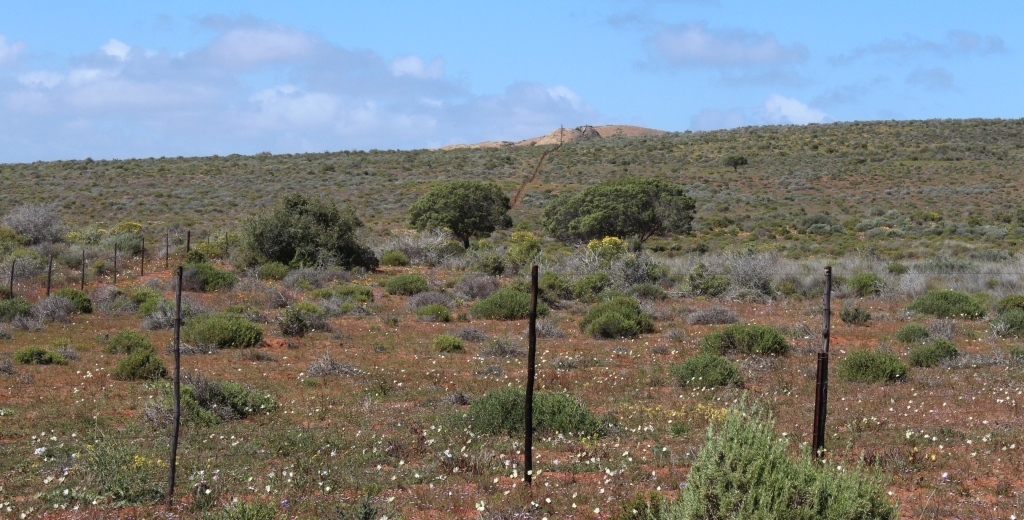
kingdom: Plantae
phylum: Tracheophyta
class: Magnoliopsida
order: Fabales
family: Fabaceae
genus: Acacia
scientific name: Acacia cyclops
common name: Coastal wattle
